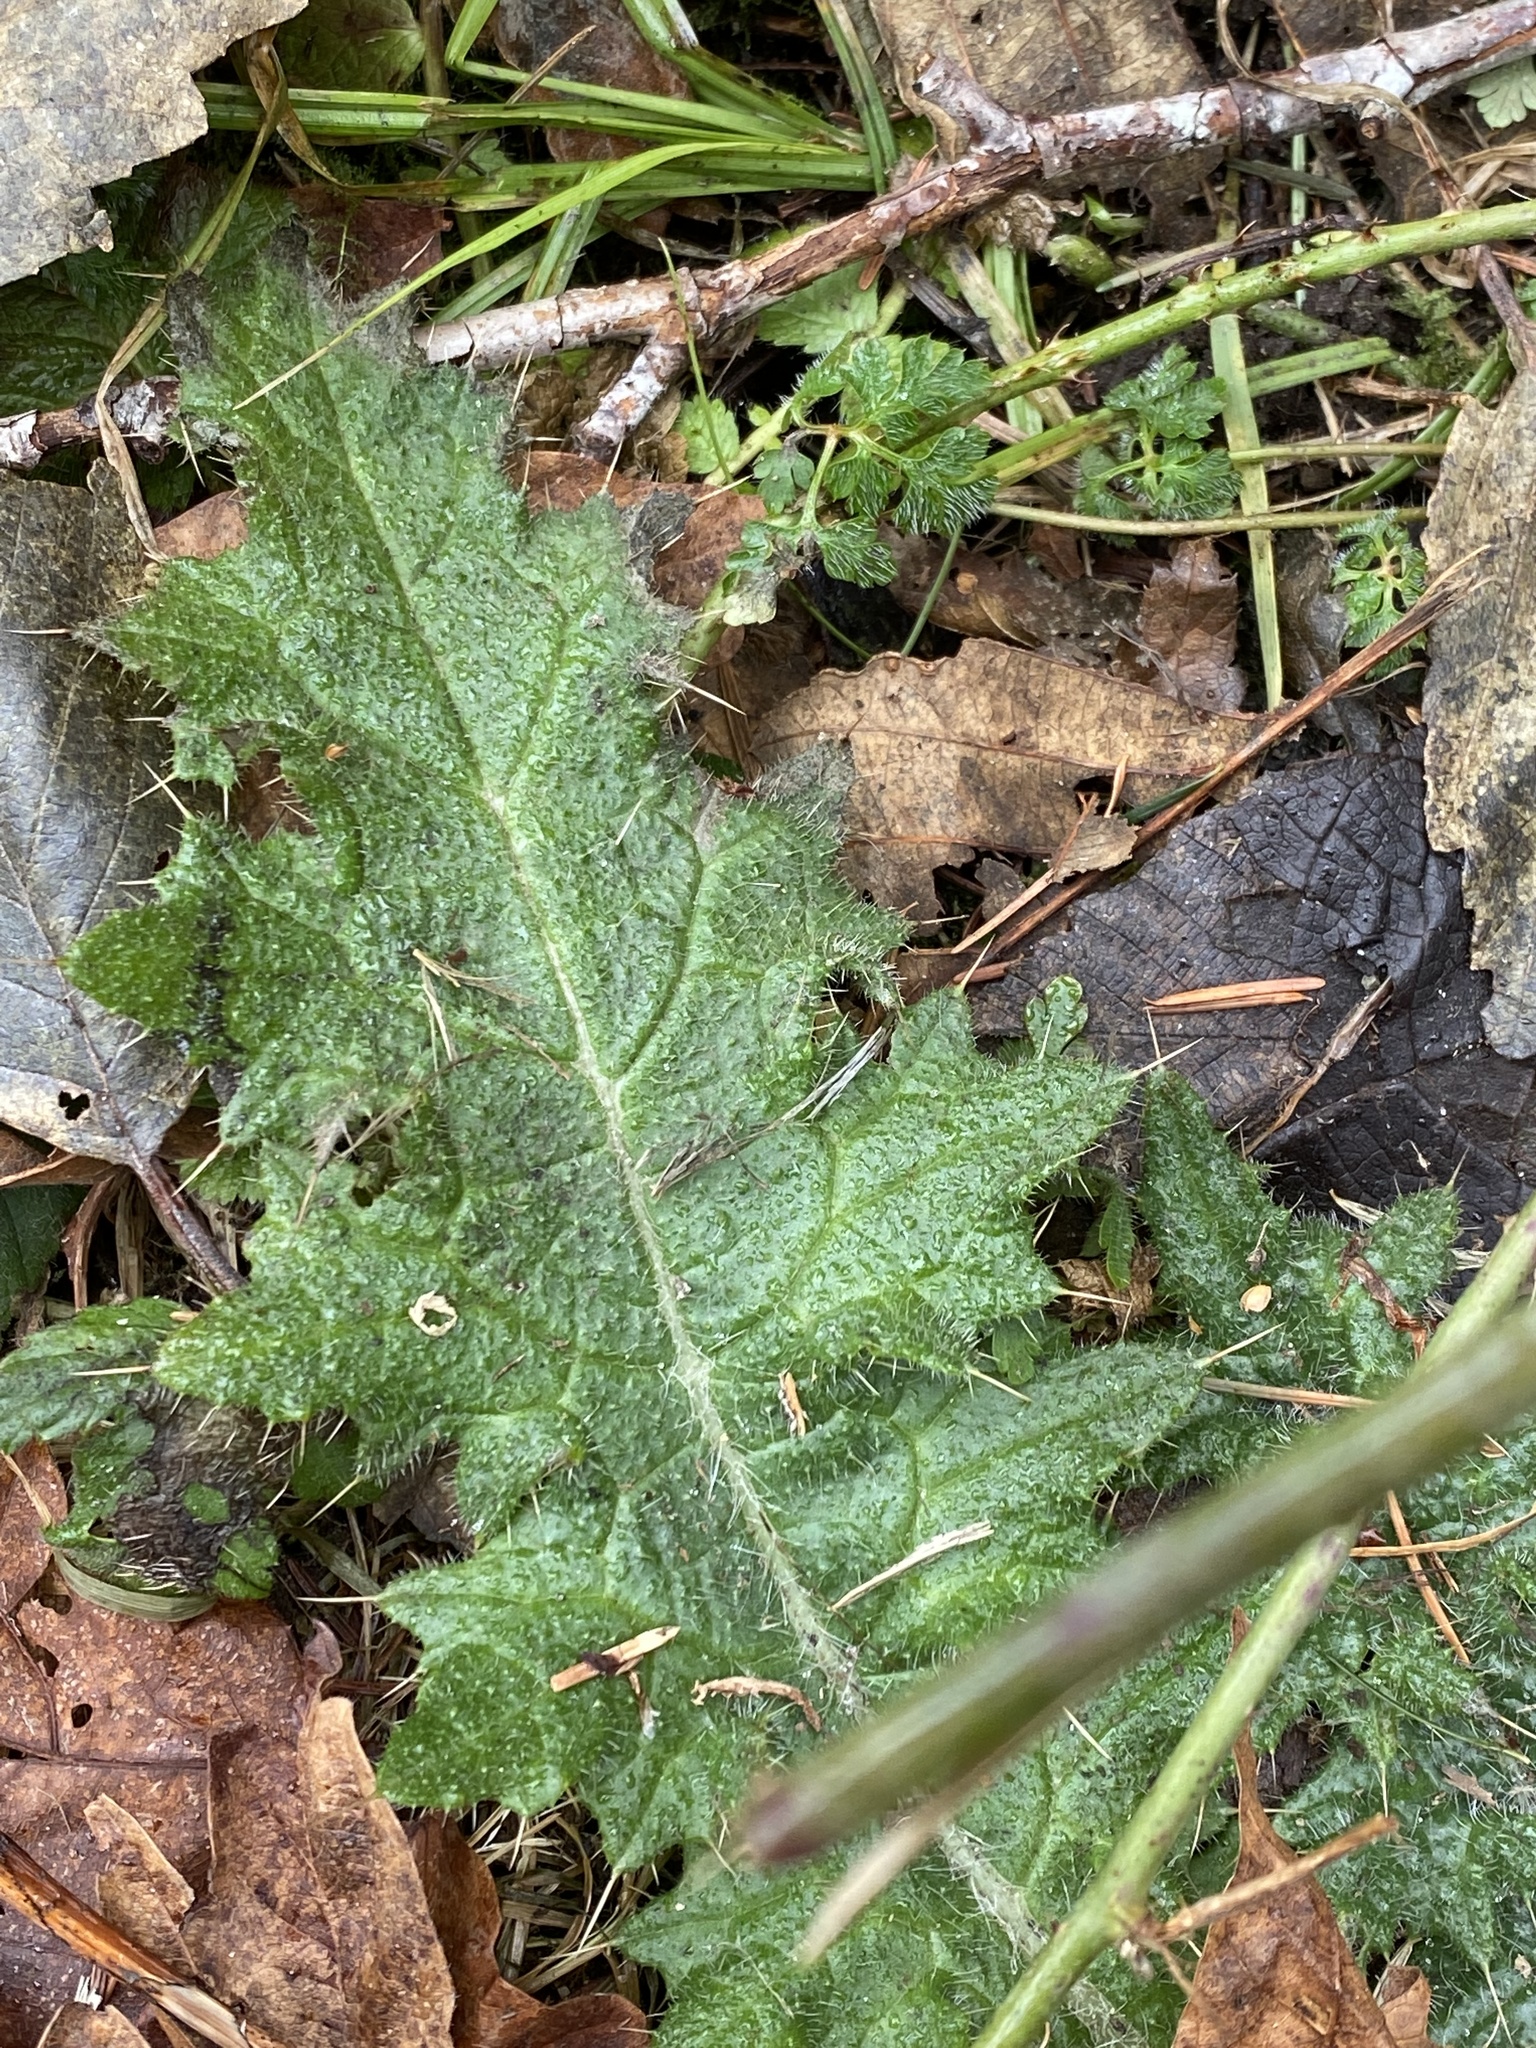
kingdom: Plantae
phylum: Tracheophyta
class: Magnoliopsida
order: Asterales
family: Asteraceae
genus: Cirsium
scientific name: Cirsium vulgare
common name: Bull thistle
